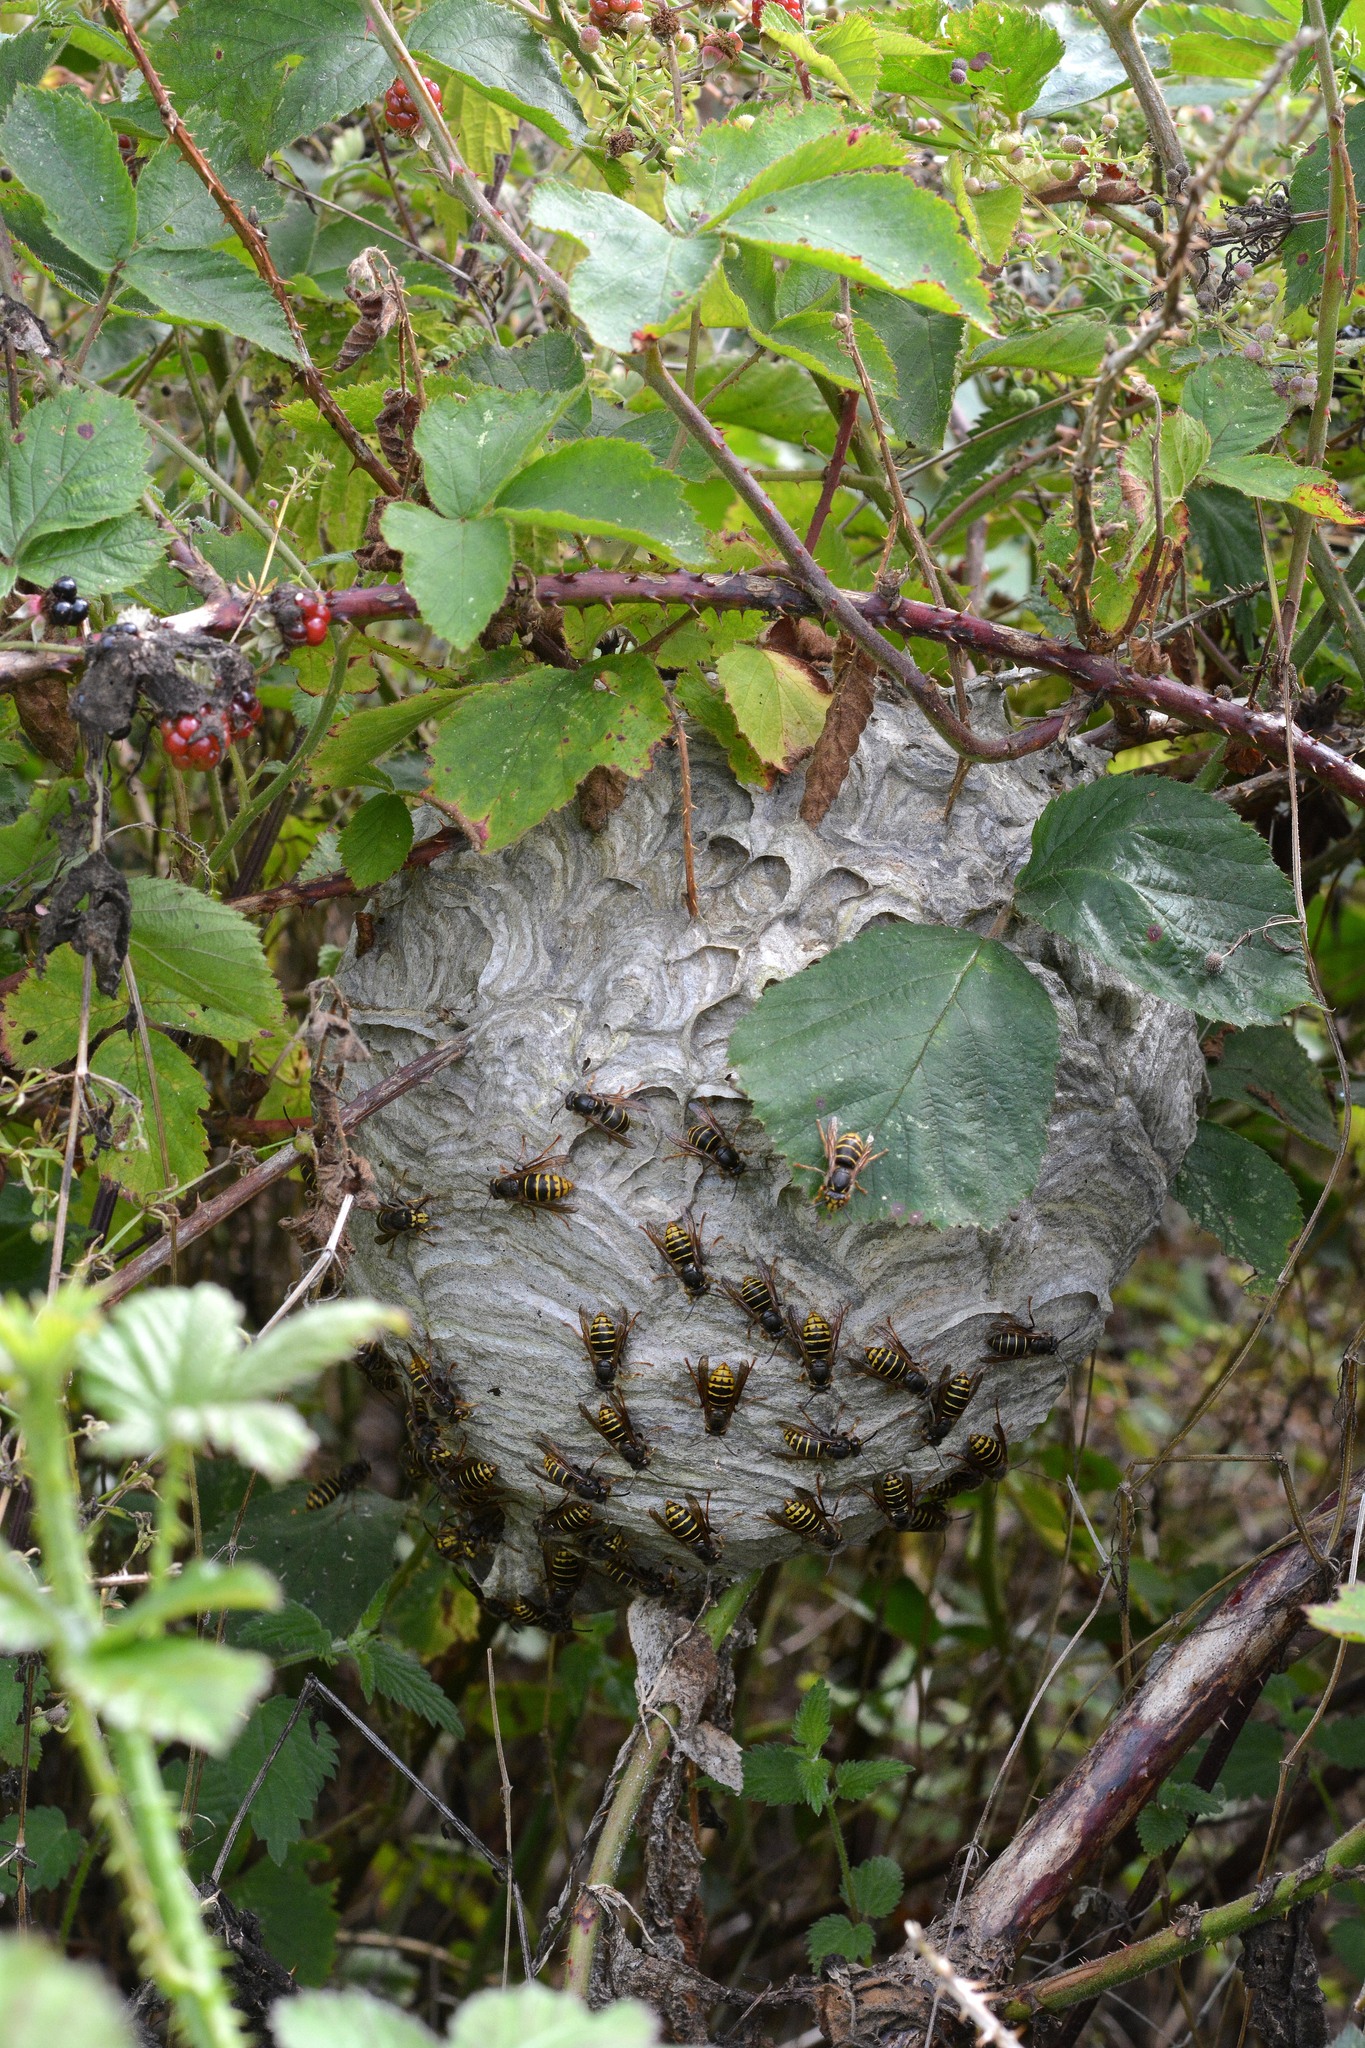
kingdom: Animalia
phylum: Arthropoda
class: Insecta
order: Hymenoptera
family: Vespidae
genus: Dolichovespula
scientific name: Dolichovespula media
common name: Median wasp
